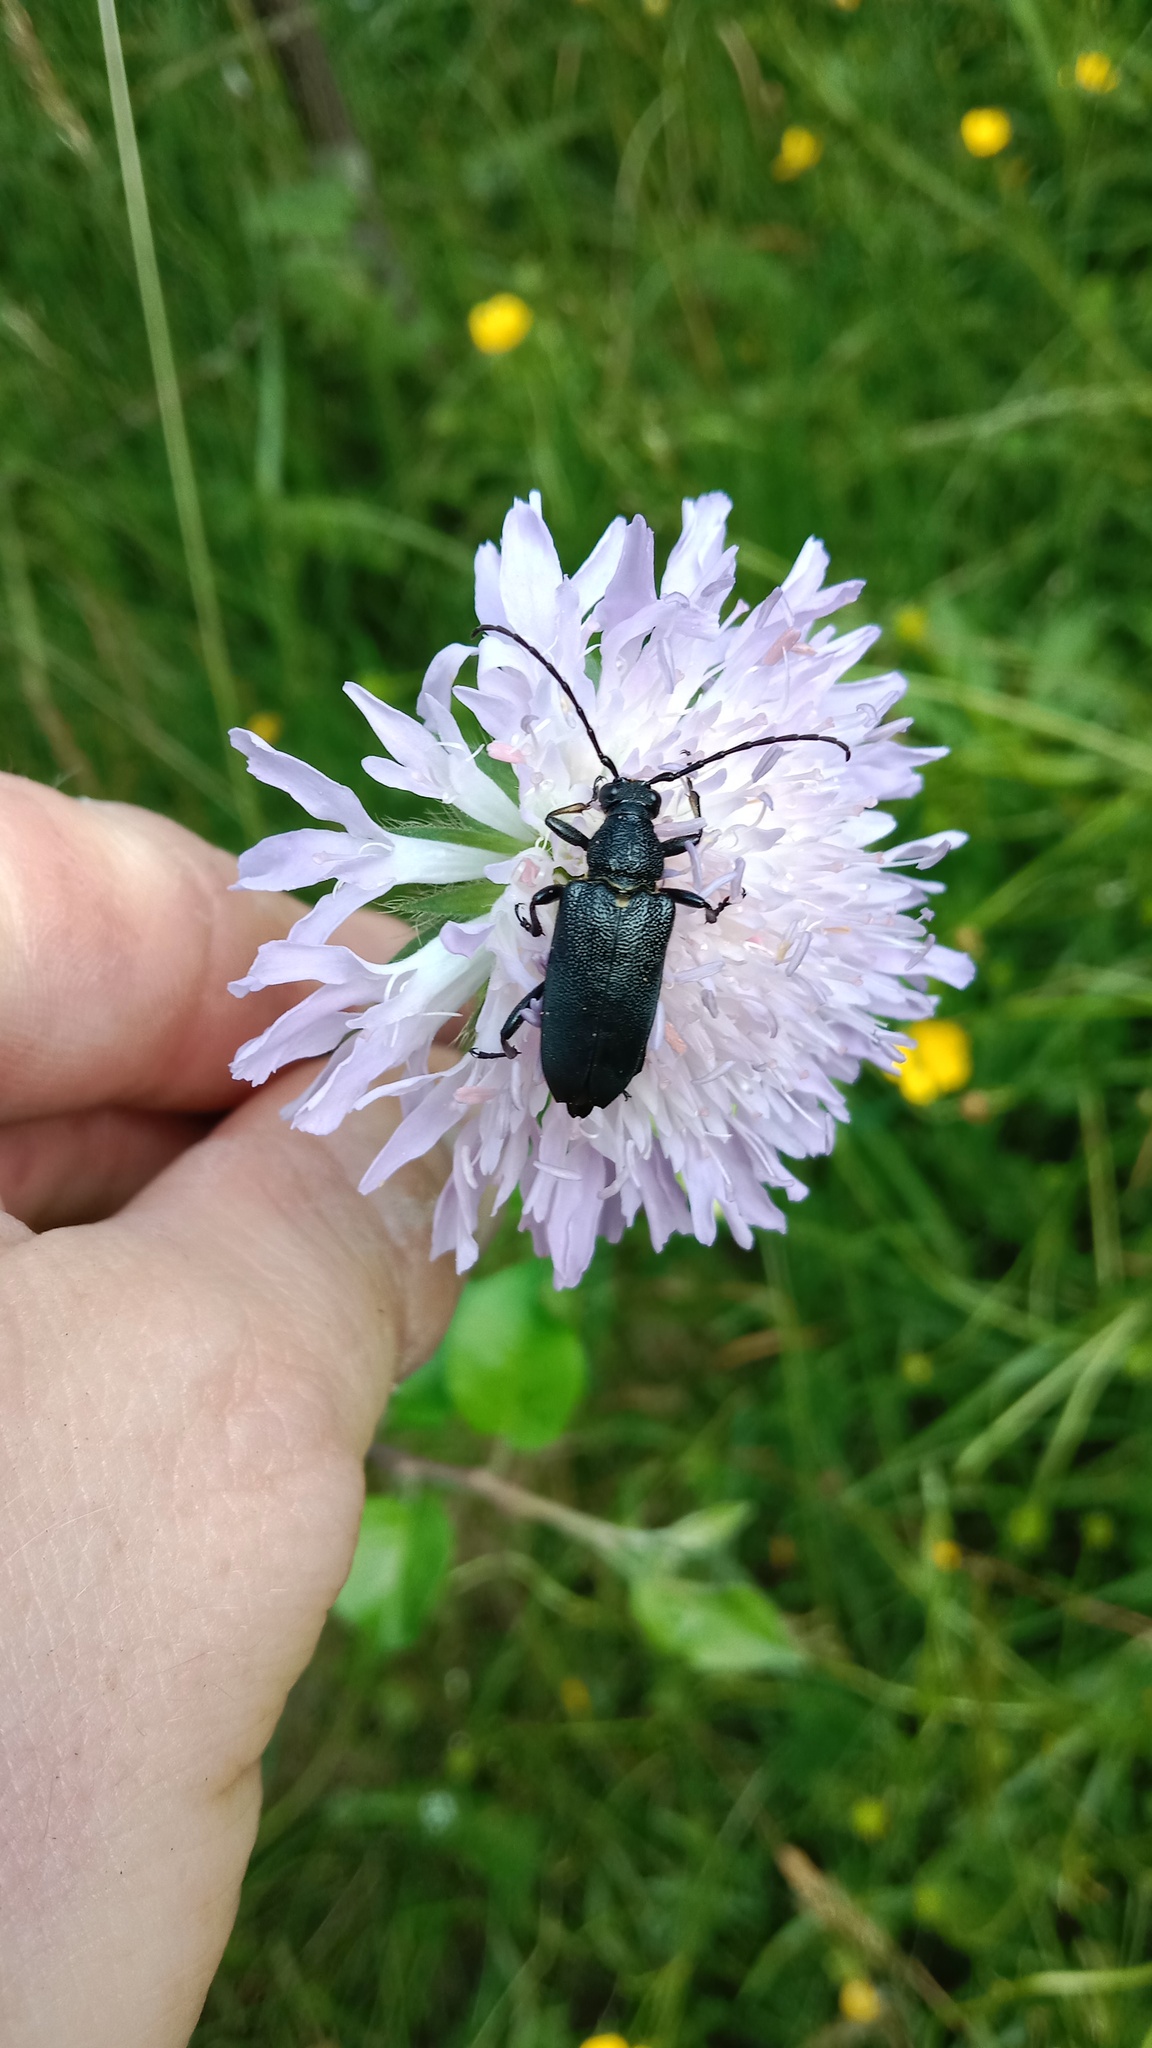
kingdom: Animalia
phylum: Arthropoda
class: Insecta
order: Coleoptera
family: Cerambycidae
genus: Gaurotes
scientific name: Gaurotes virginea
